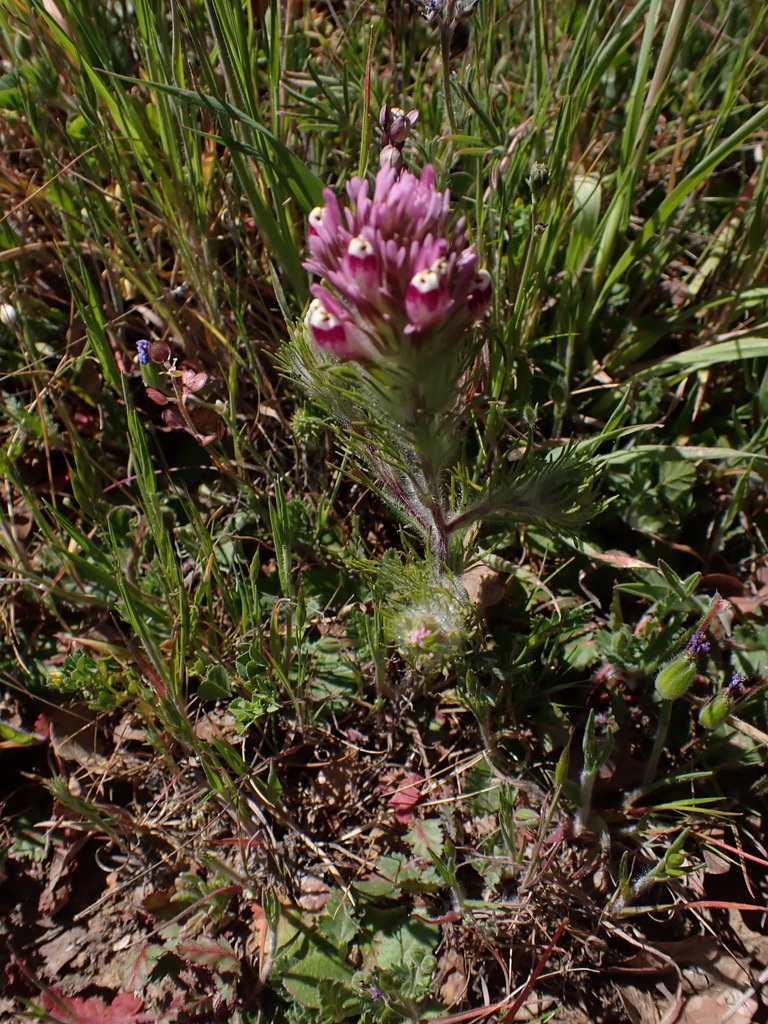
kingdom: Plantae
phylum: Tracheophyta
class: Magnoliopsida
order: Lamiales
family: Orobanchaceae
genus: Castilleja
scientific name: Castilleja exserta
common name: Purple owl-clover
